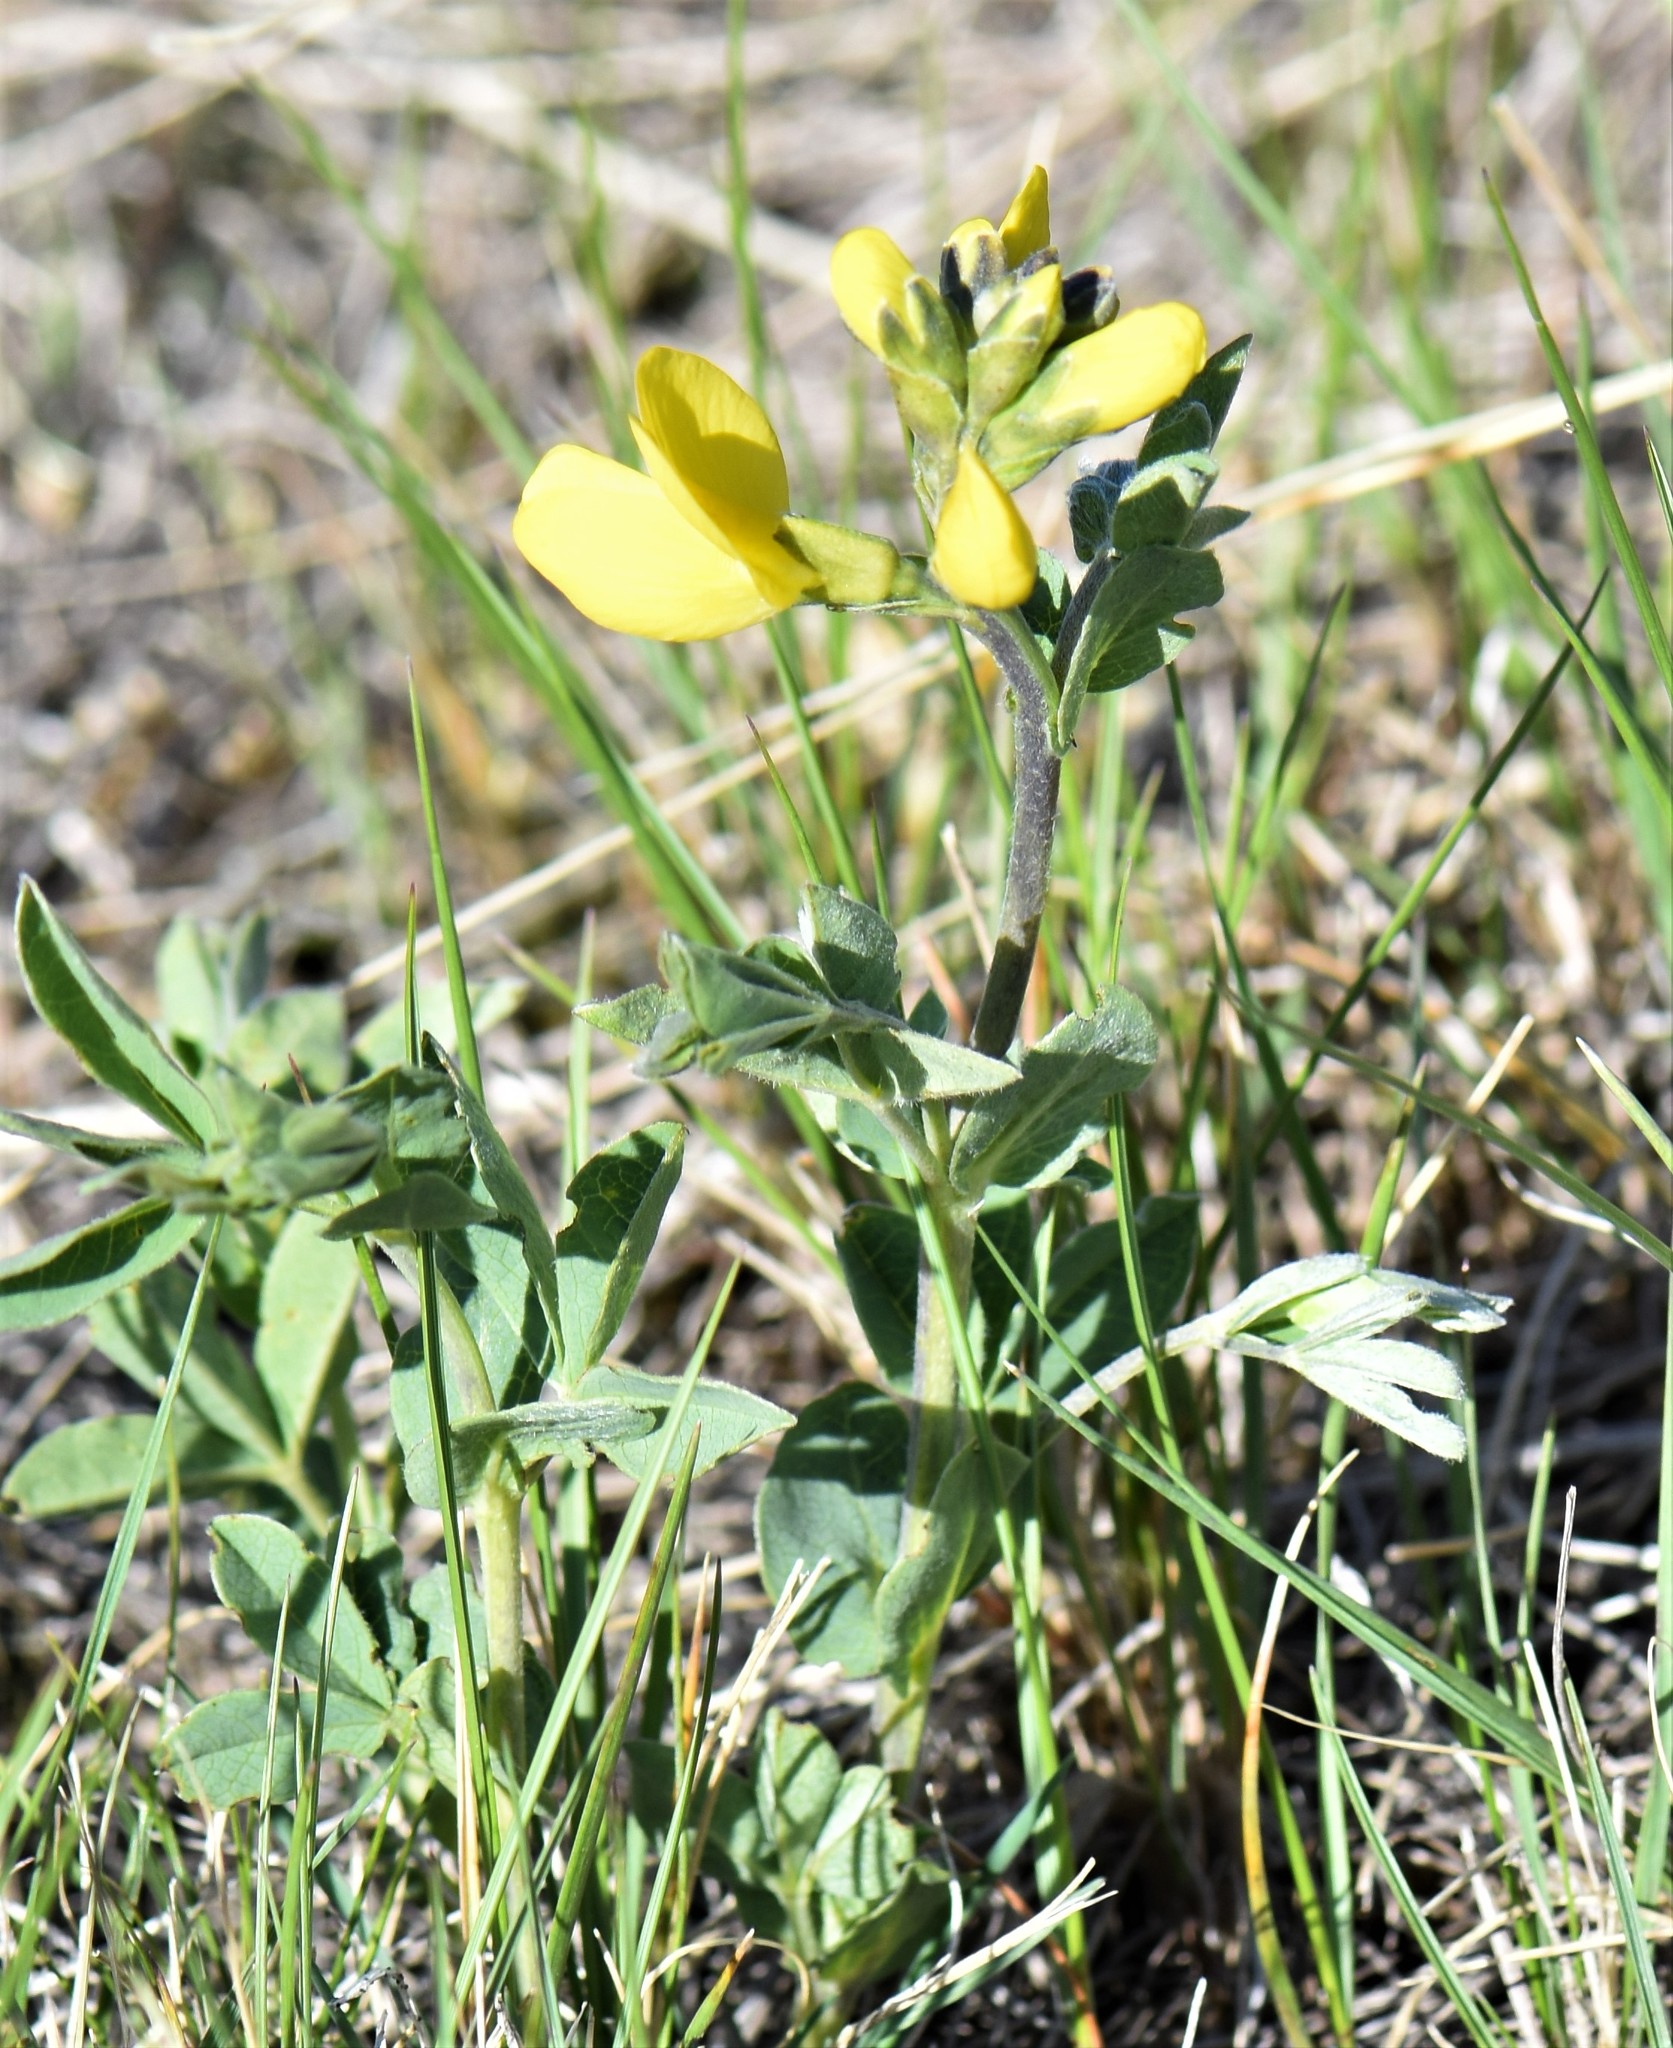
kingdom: Plantae
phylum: Tracheophyta
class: Magnoliopsida
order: Fabales
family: Fabaceae
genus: Thermopsis
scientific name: Thermopsis rhombifolia
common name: Circle-pod-pea
